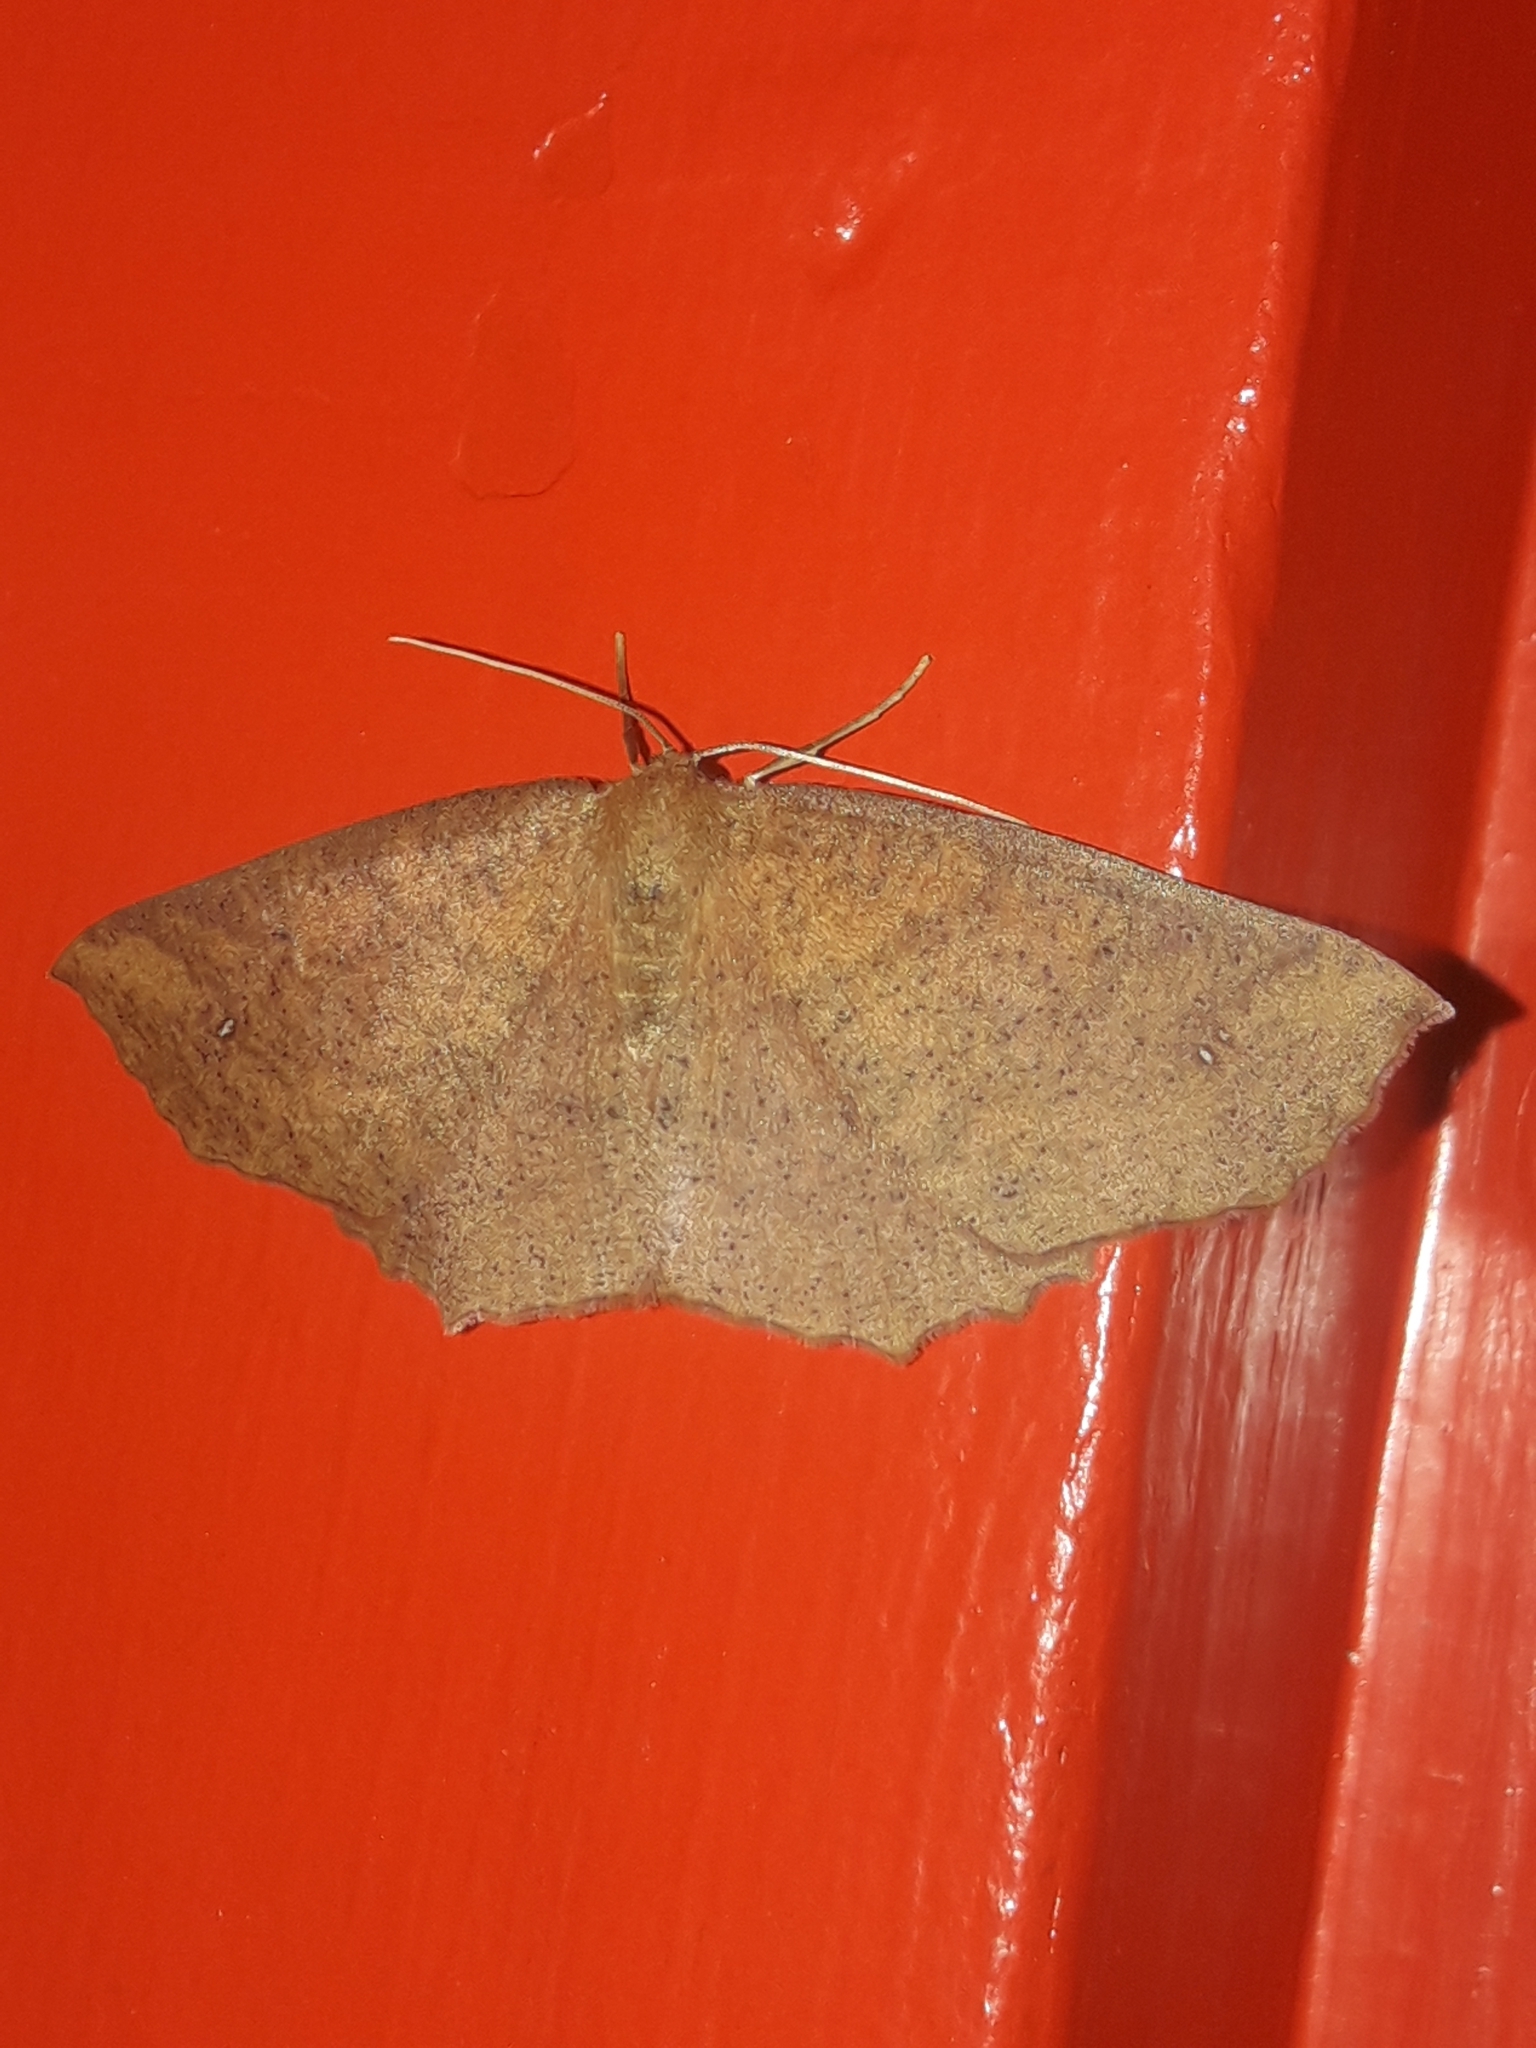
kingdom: Animalia
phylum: Arthropoda
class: Insecta
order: Lepidoptera
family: Geometridae
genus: Xyridacma
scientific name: Xyridacma ustaria
